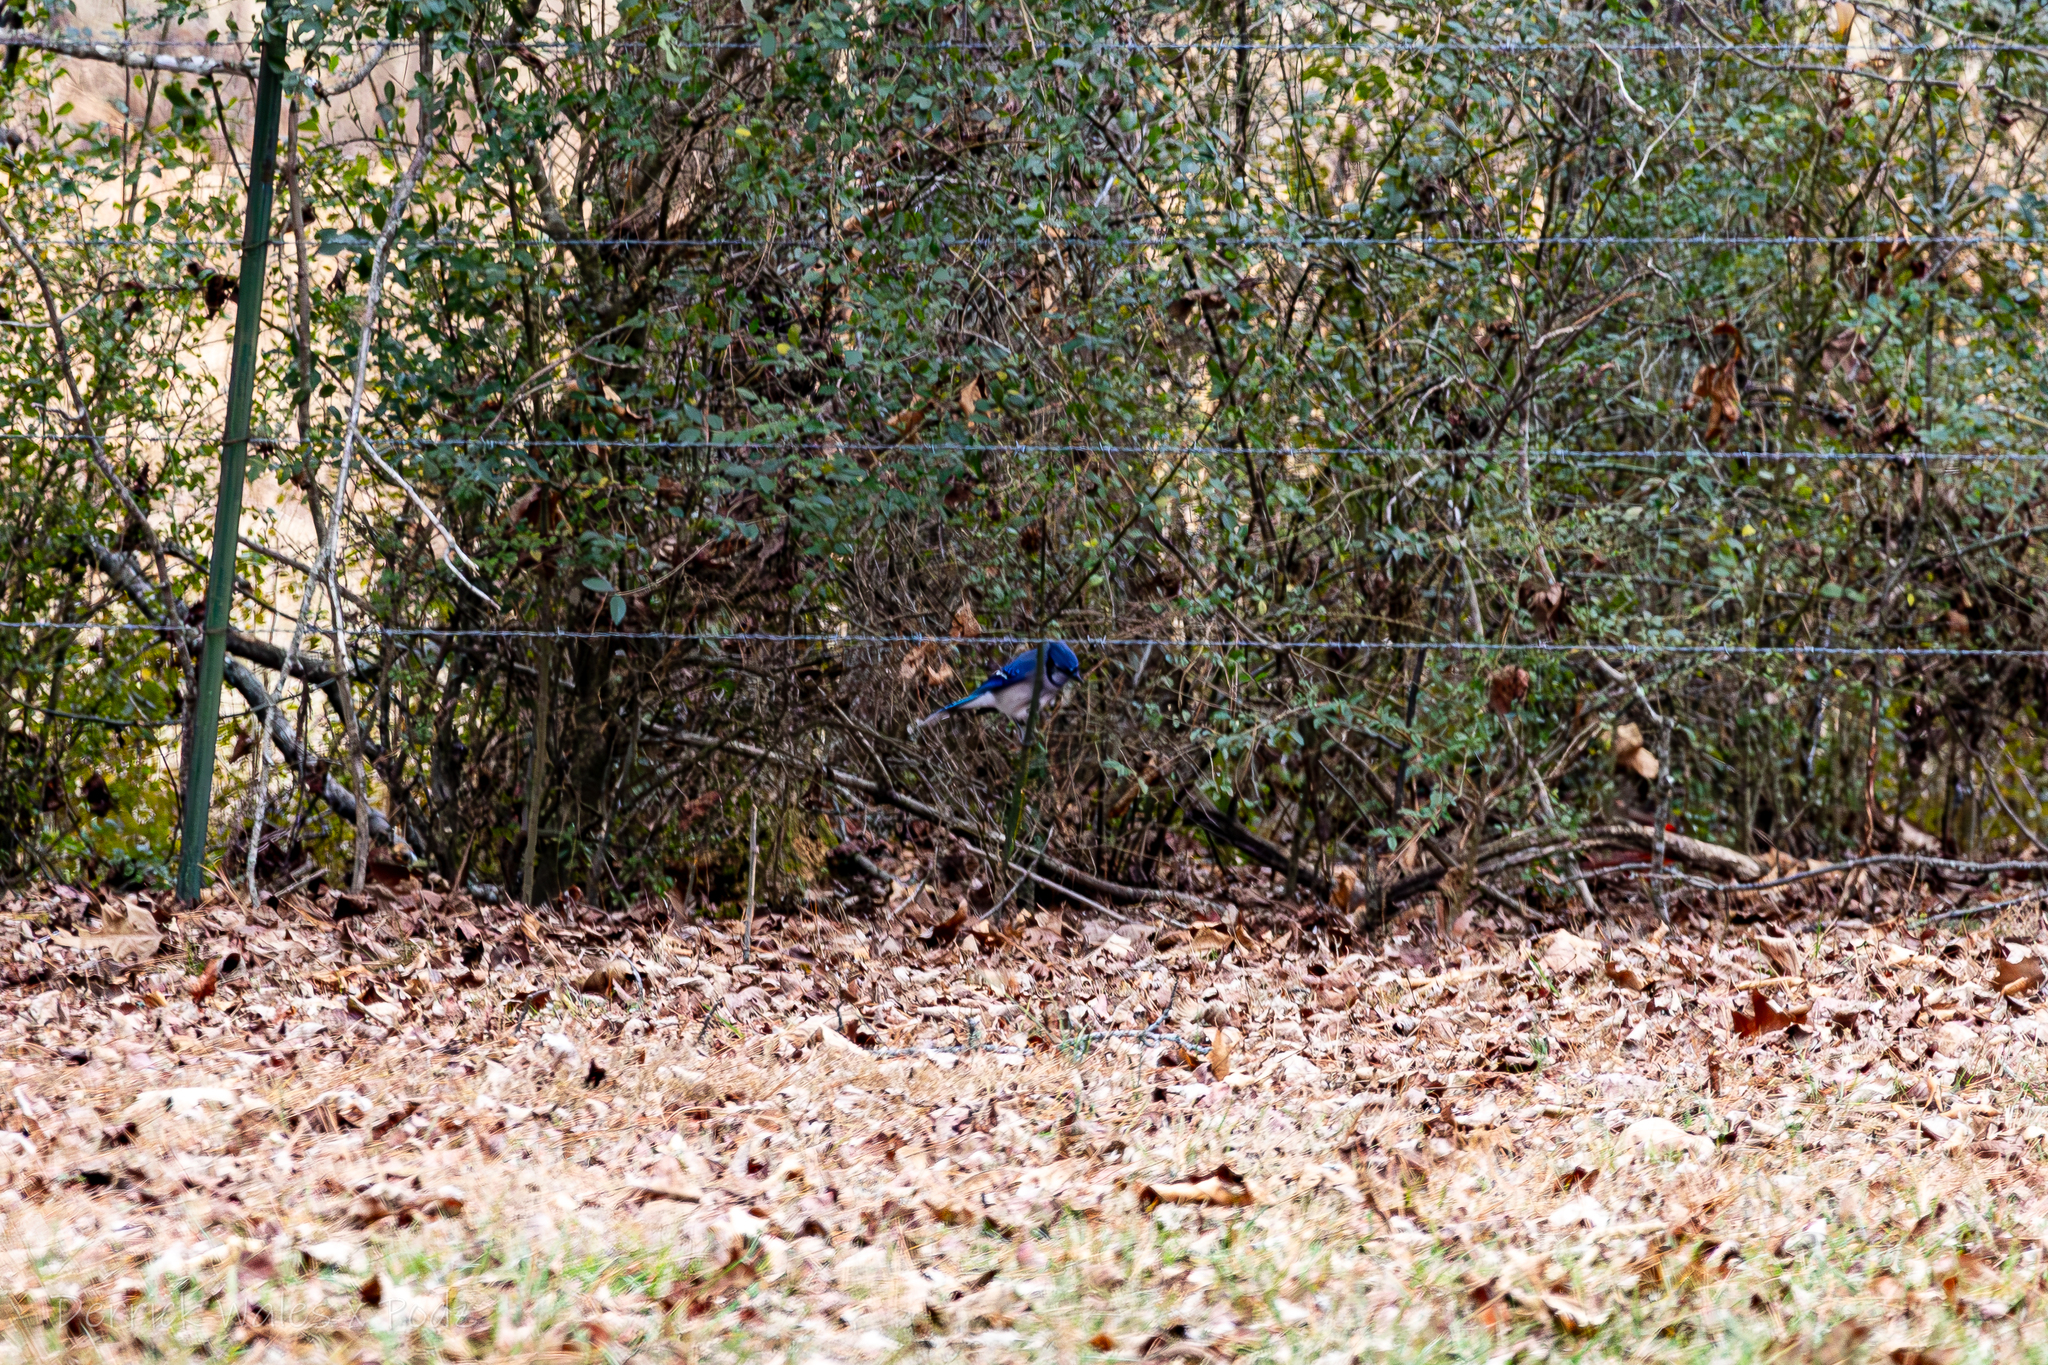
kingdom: Animalia
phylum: Chordata
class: Aves
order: Passeriformes
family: Corvidae
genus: Cyanocitta
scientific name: Cyanocitta cristata
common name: Blue jay
